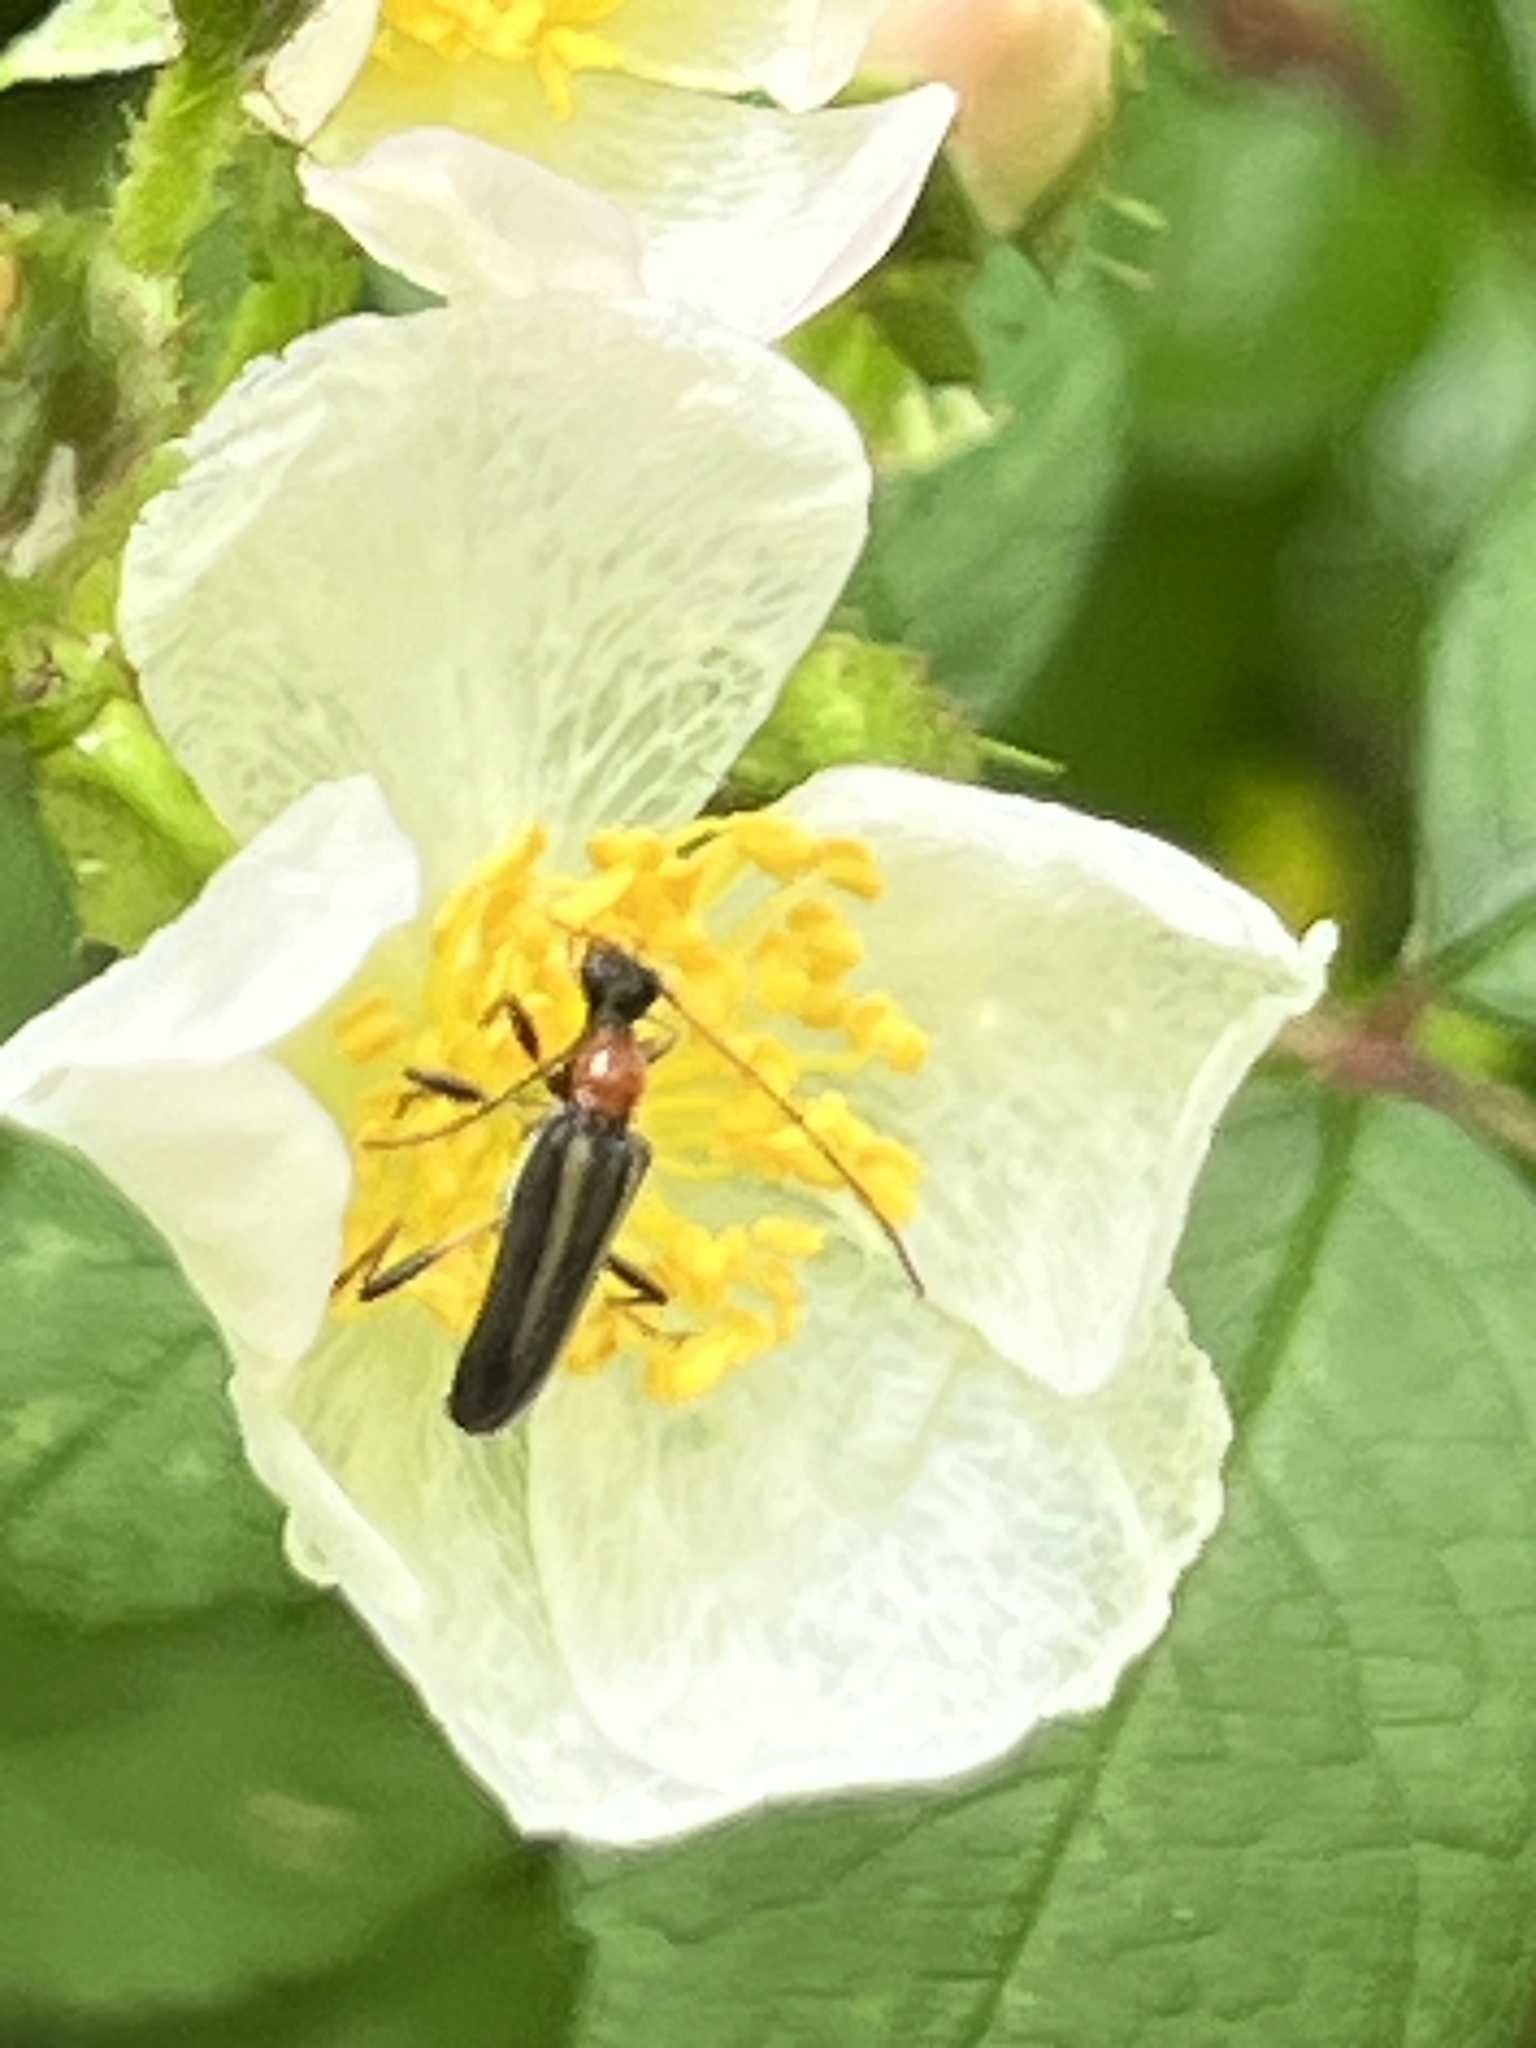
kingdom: Animalia
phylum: Arthropoda
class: Insecta
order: Coleoptera
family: Cerambycidae
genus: Pidonia
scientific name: Pidonia ruficollis
